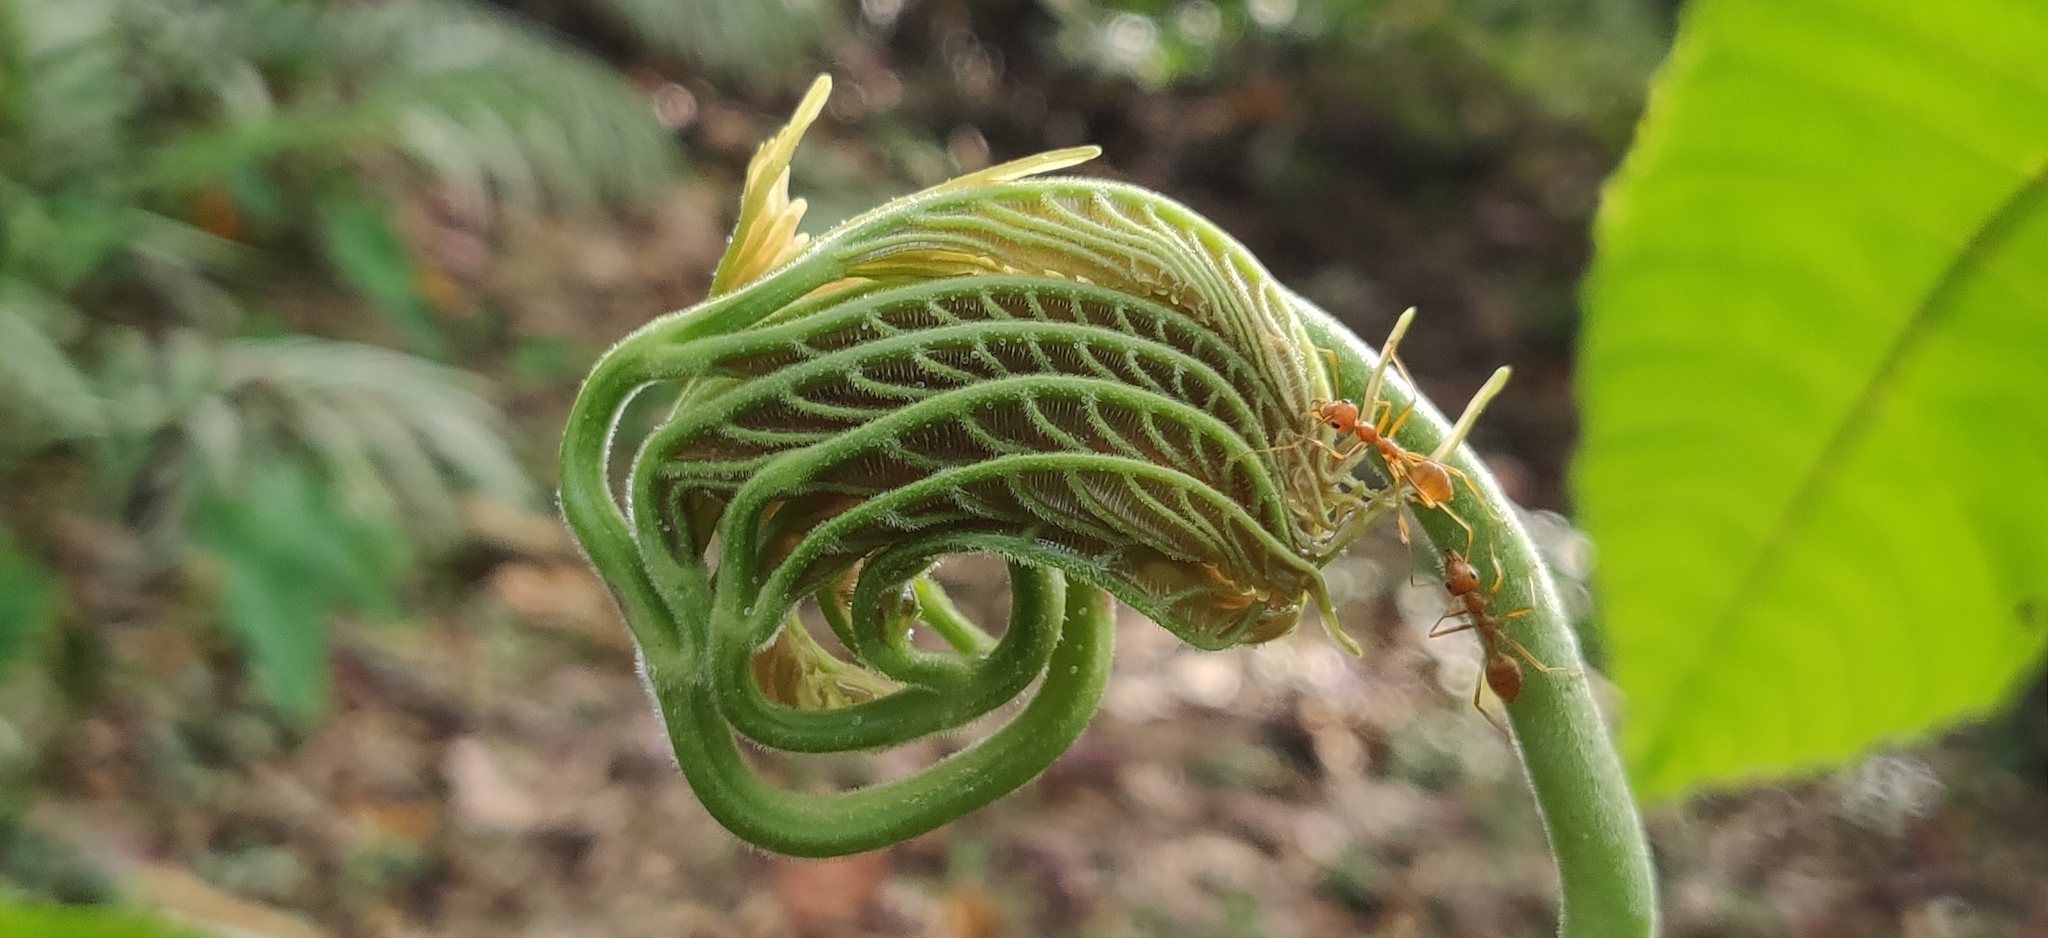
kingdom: Animalia
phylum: Arthropoda
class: Insecta
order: Hymenoptera
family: Formicidae
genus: Oecophylla
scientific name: Oecophylla smaragdina
